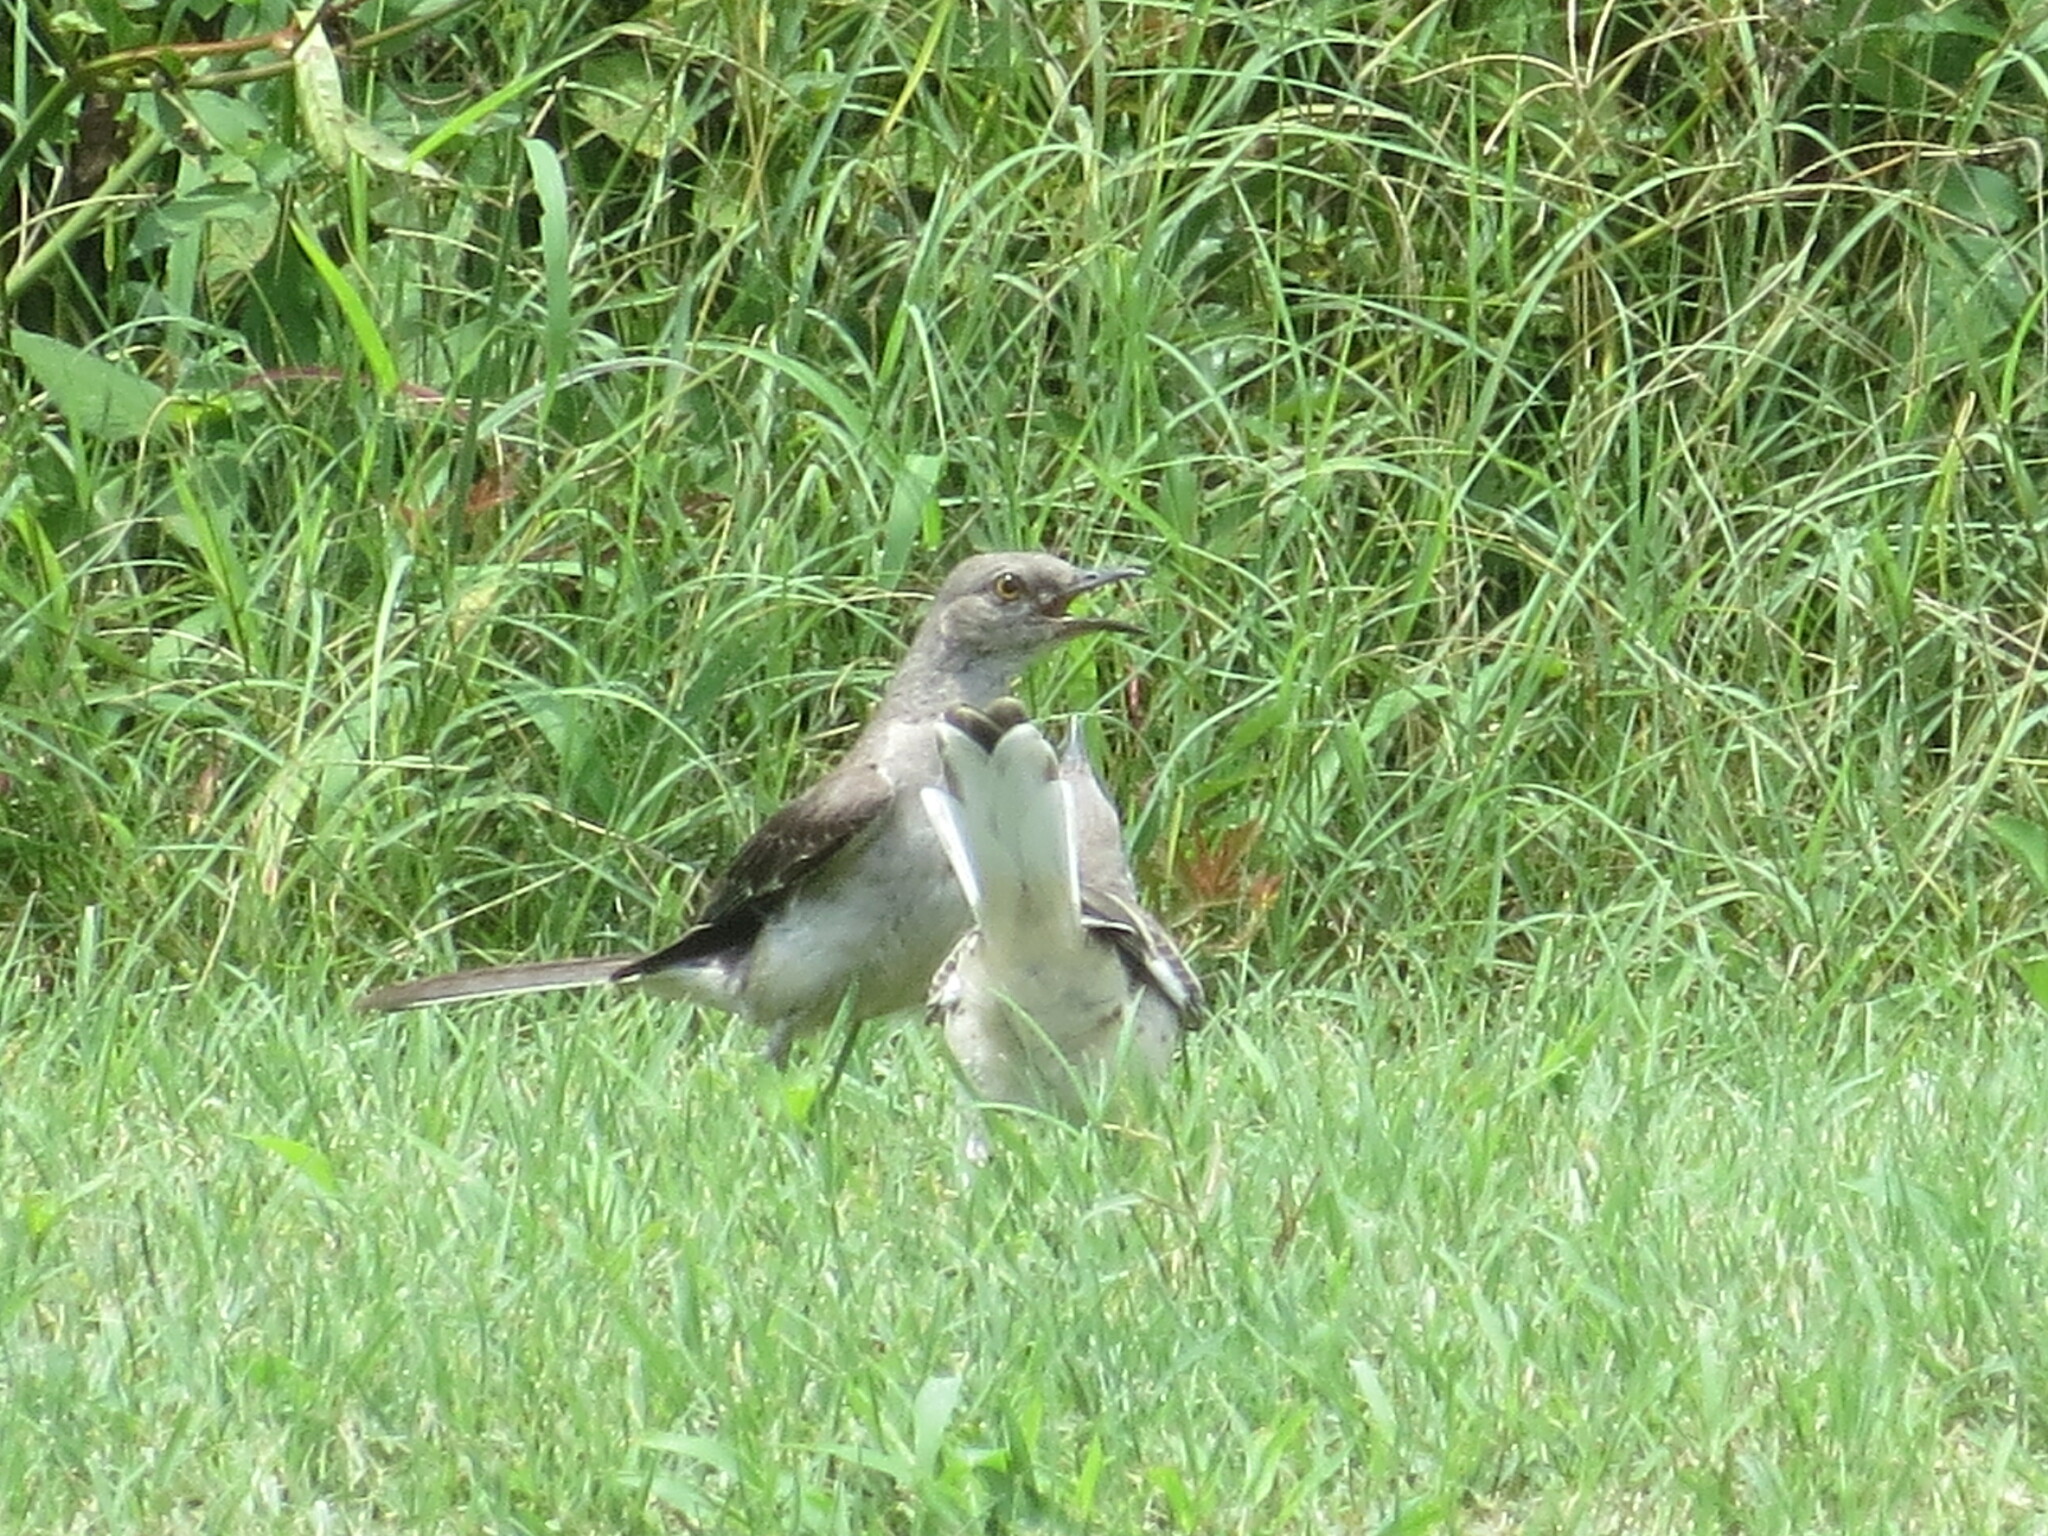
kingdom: Animalia
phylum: Chordata
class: Aves
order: Passeriformes
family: Mimidae
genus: Mimus
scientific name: Mimus polyglottos
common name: Northern mockingbird
